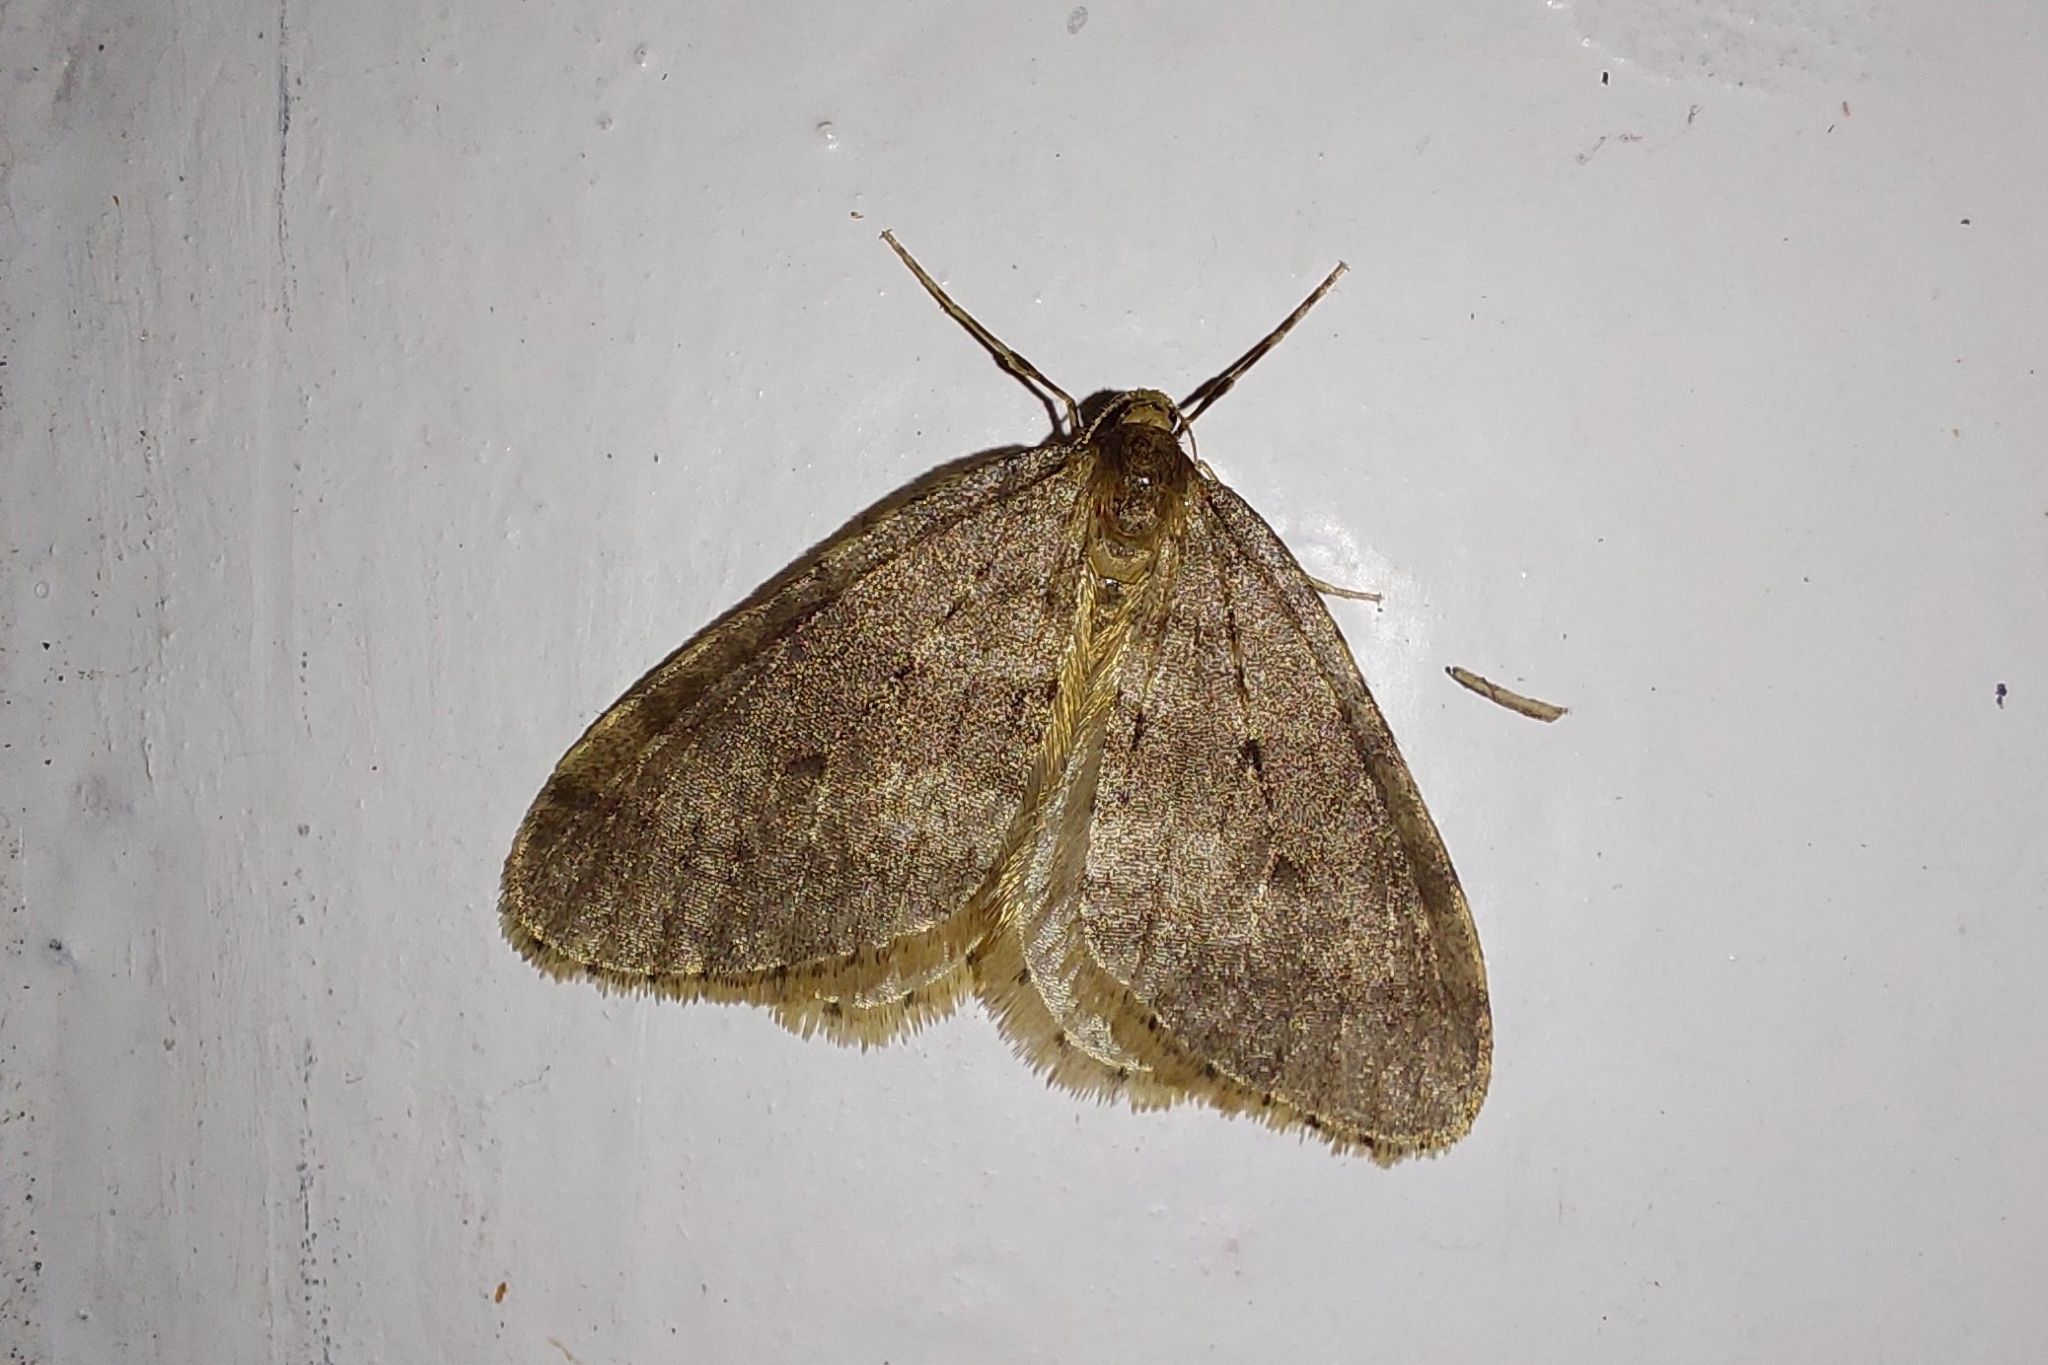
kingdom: Animalia
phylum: Arthropoda
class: Insecta
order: Lepidoptera
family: Geometridae
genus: Operophtera
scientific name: Operophtera brumata
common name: Winter moth
